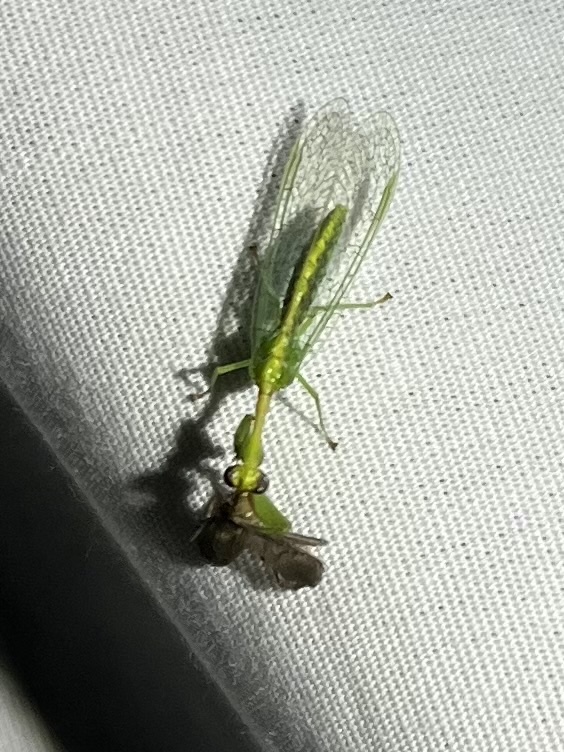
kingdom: Animalia
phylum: Arthropoda
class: Insecta
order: Neuroptera
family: Mantispidae
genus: Zeugomantispa
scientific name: Zeugomantispa minuta
